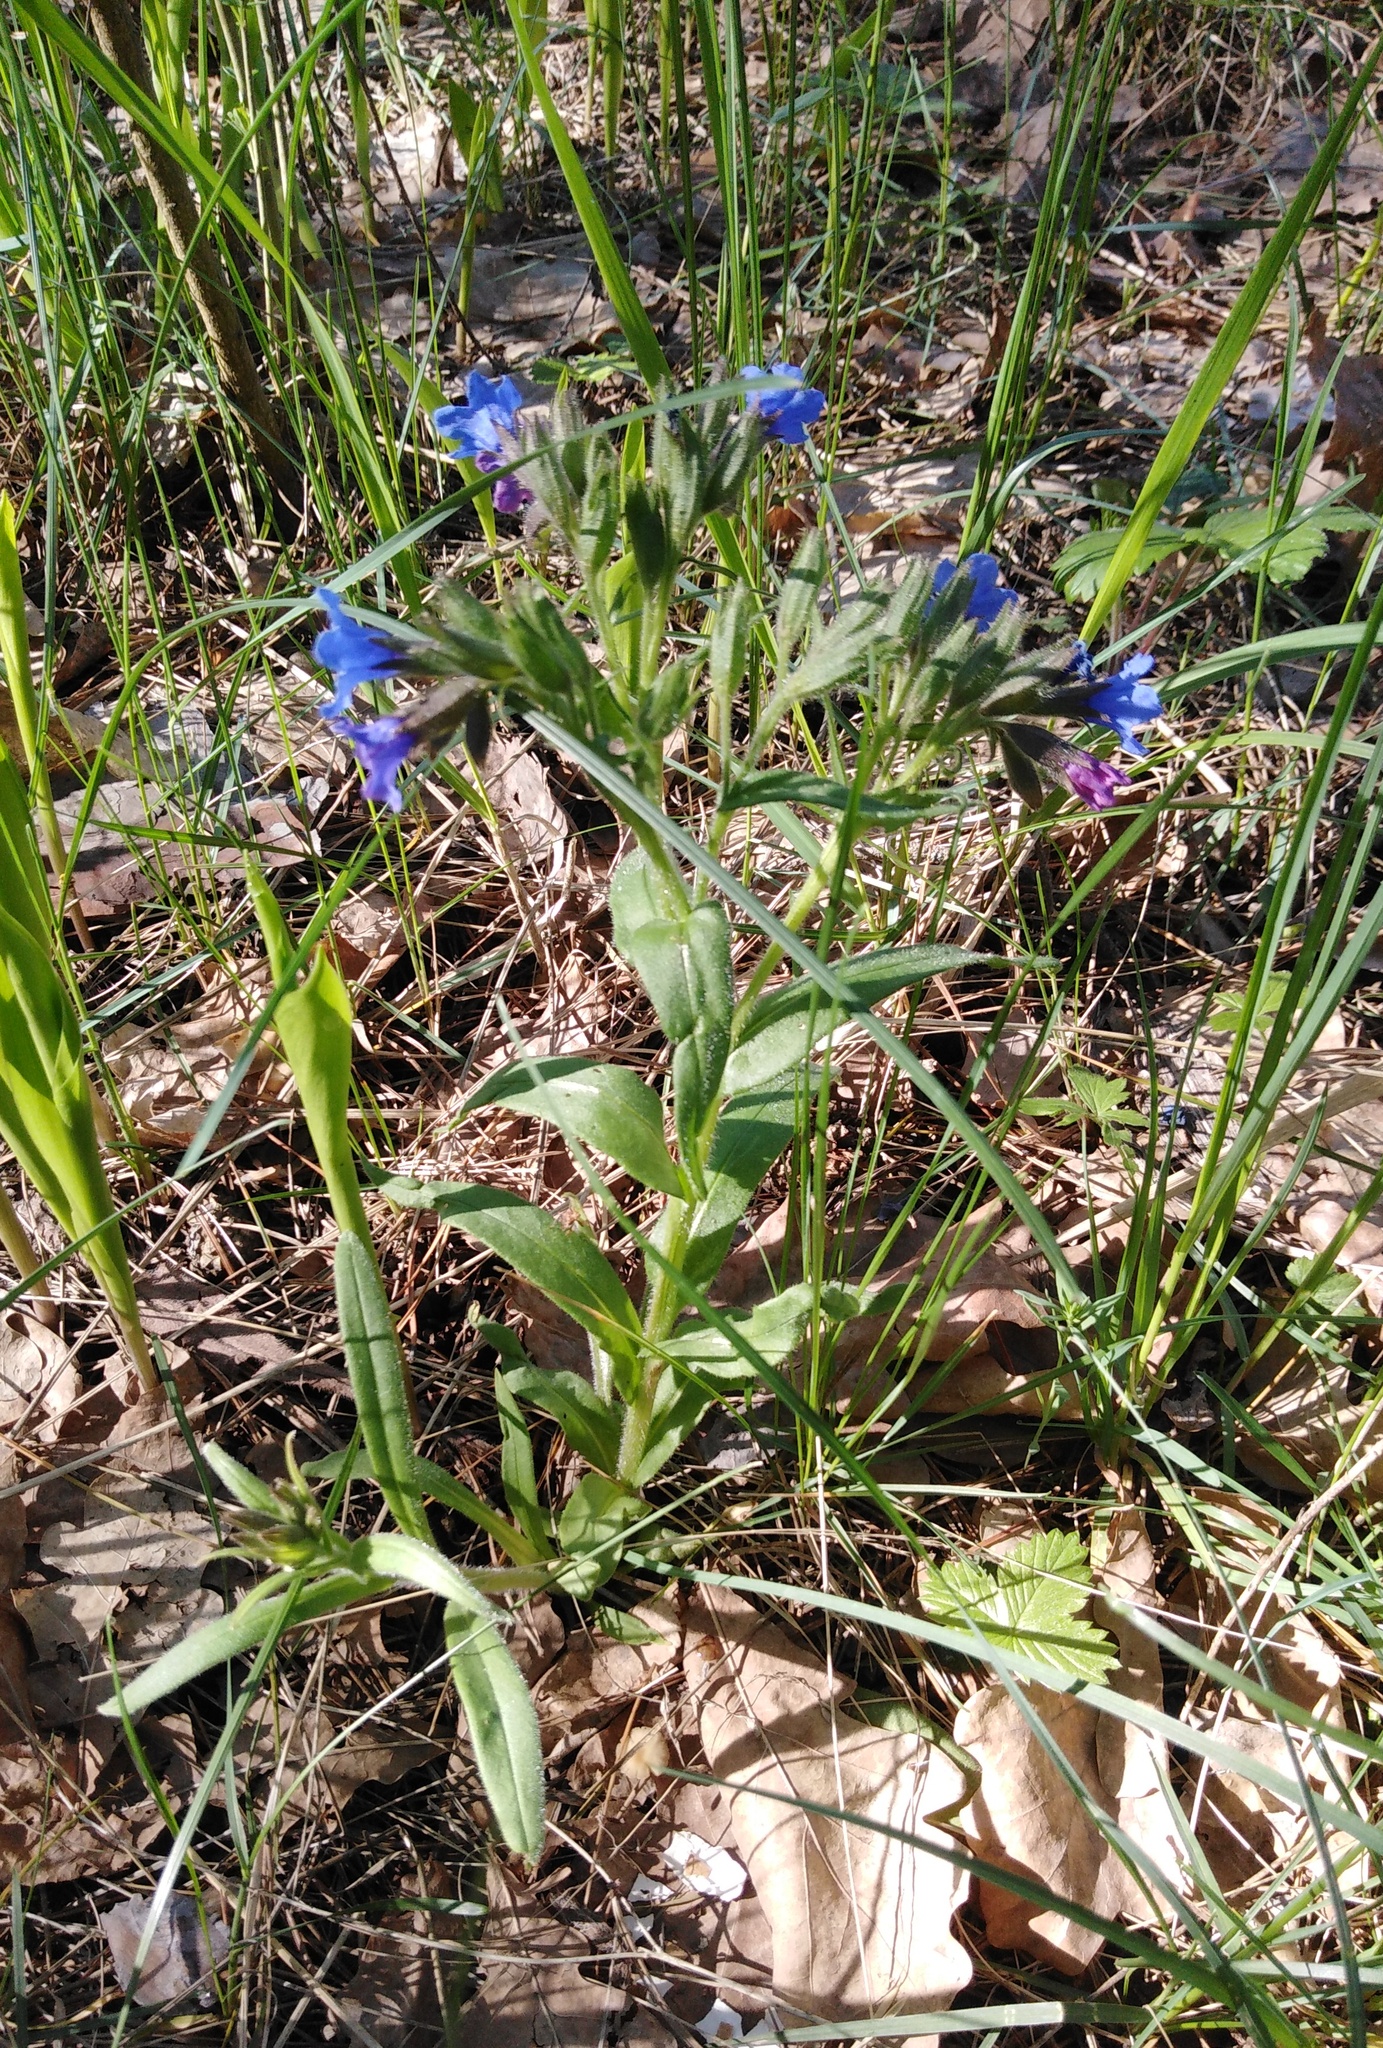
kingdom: Plantae
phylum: Tracheophyta
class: Magnoliopsida
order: Boraginales
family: Boraginaceae
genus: Pulmonaria
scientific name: Pulmonaria angustifolia
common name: Blue cowslip
